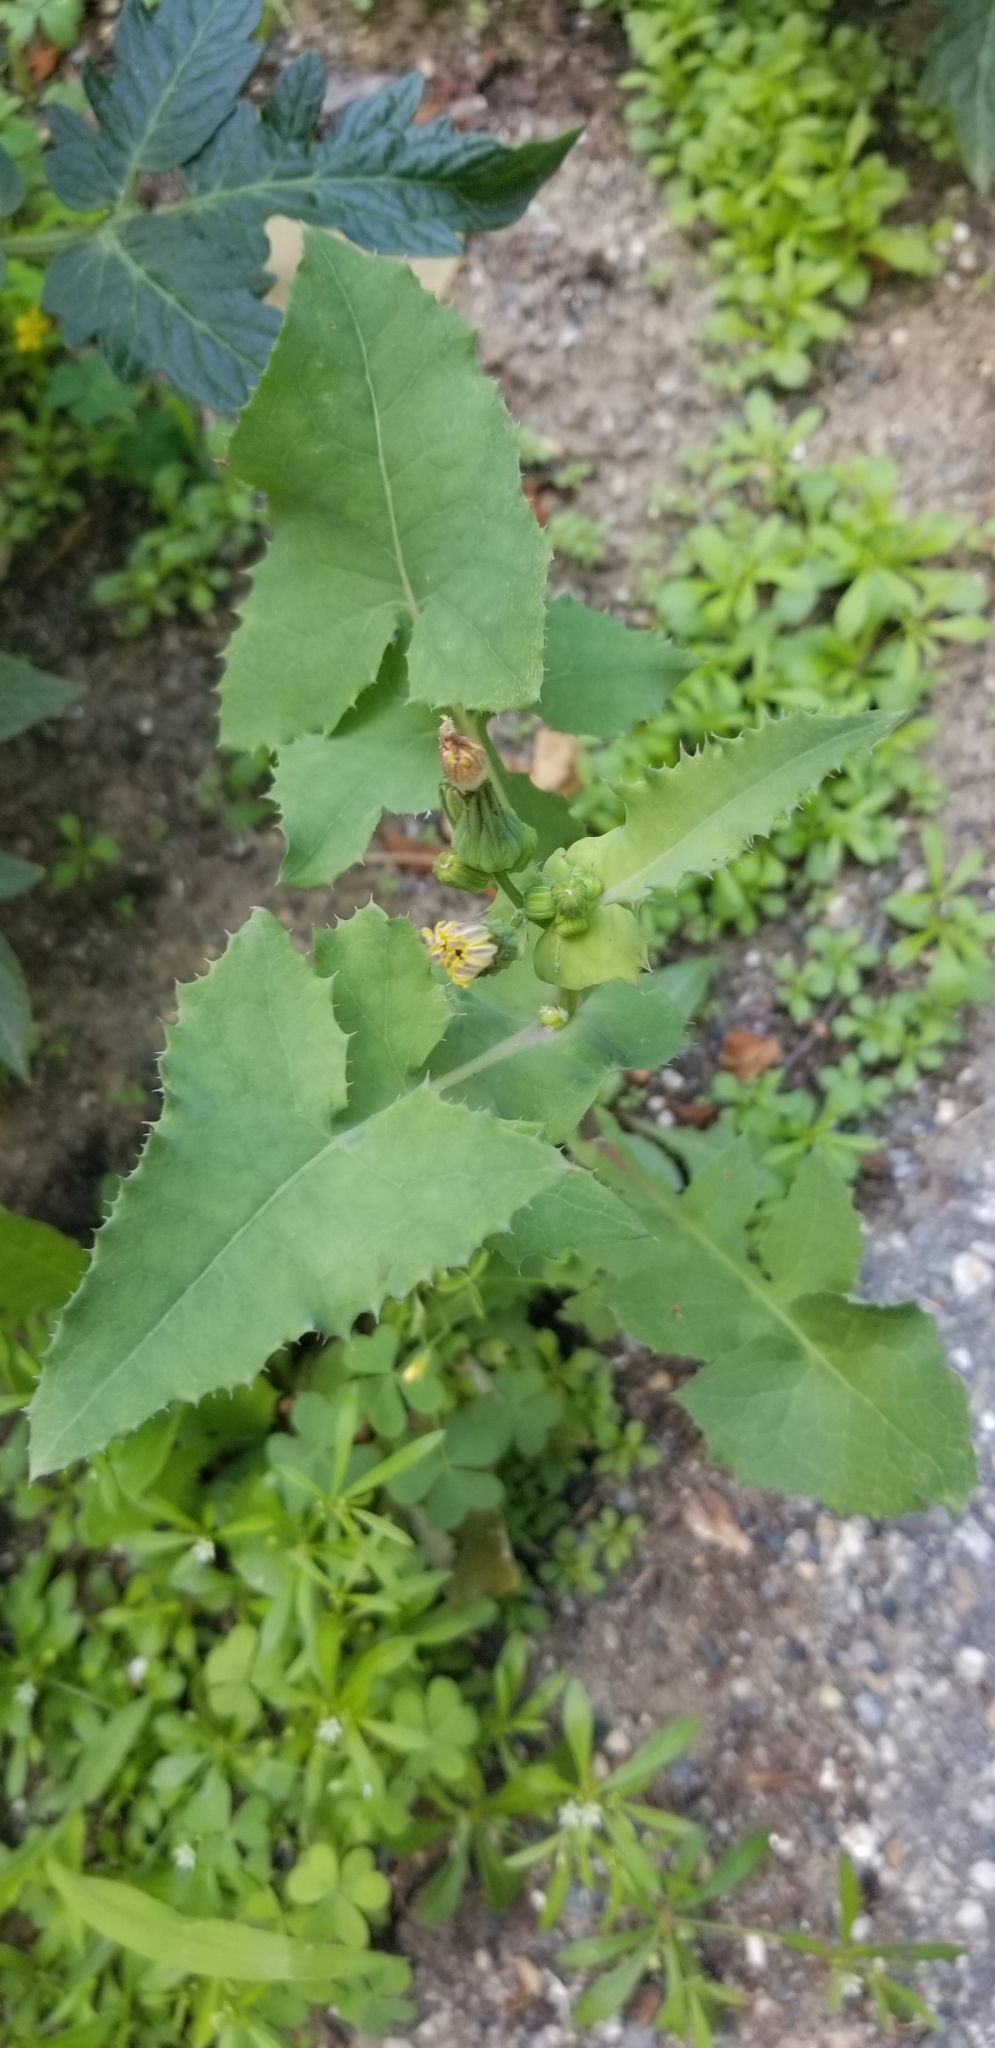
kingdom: Plantae
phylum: Tracheophyta
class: Magnoliopsida
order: Asterales
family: Asteraceae
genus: Sonchus
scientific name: Sonchus oleraceus
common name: Common sowthistle
